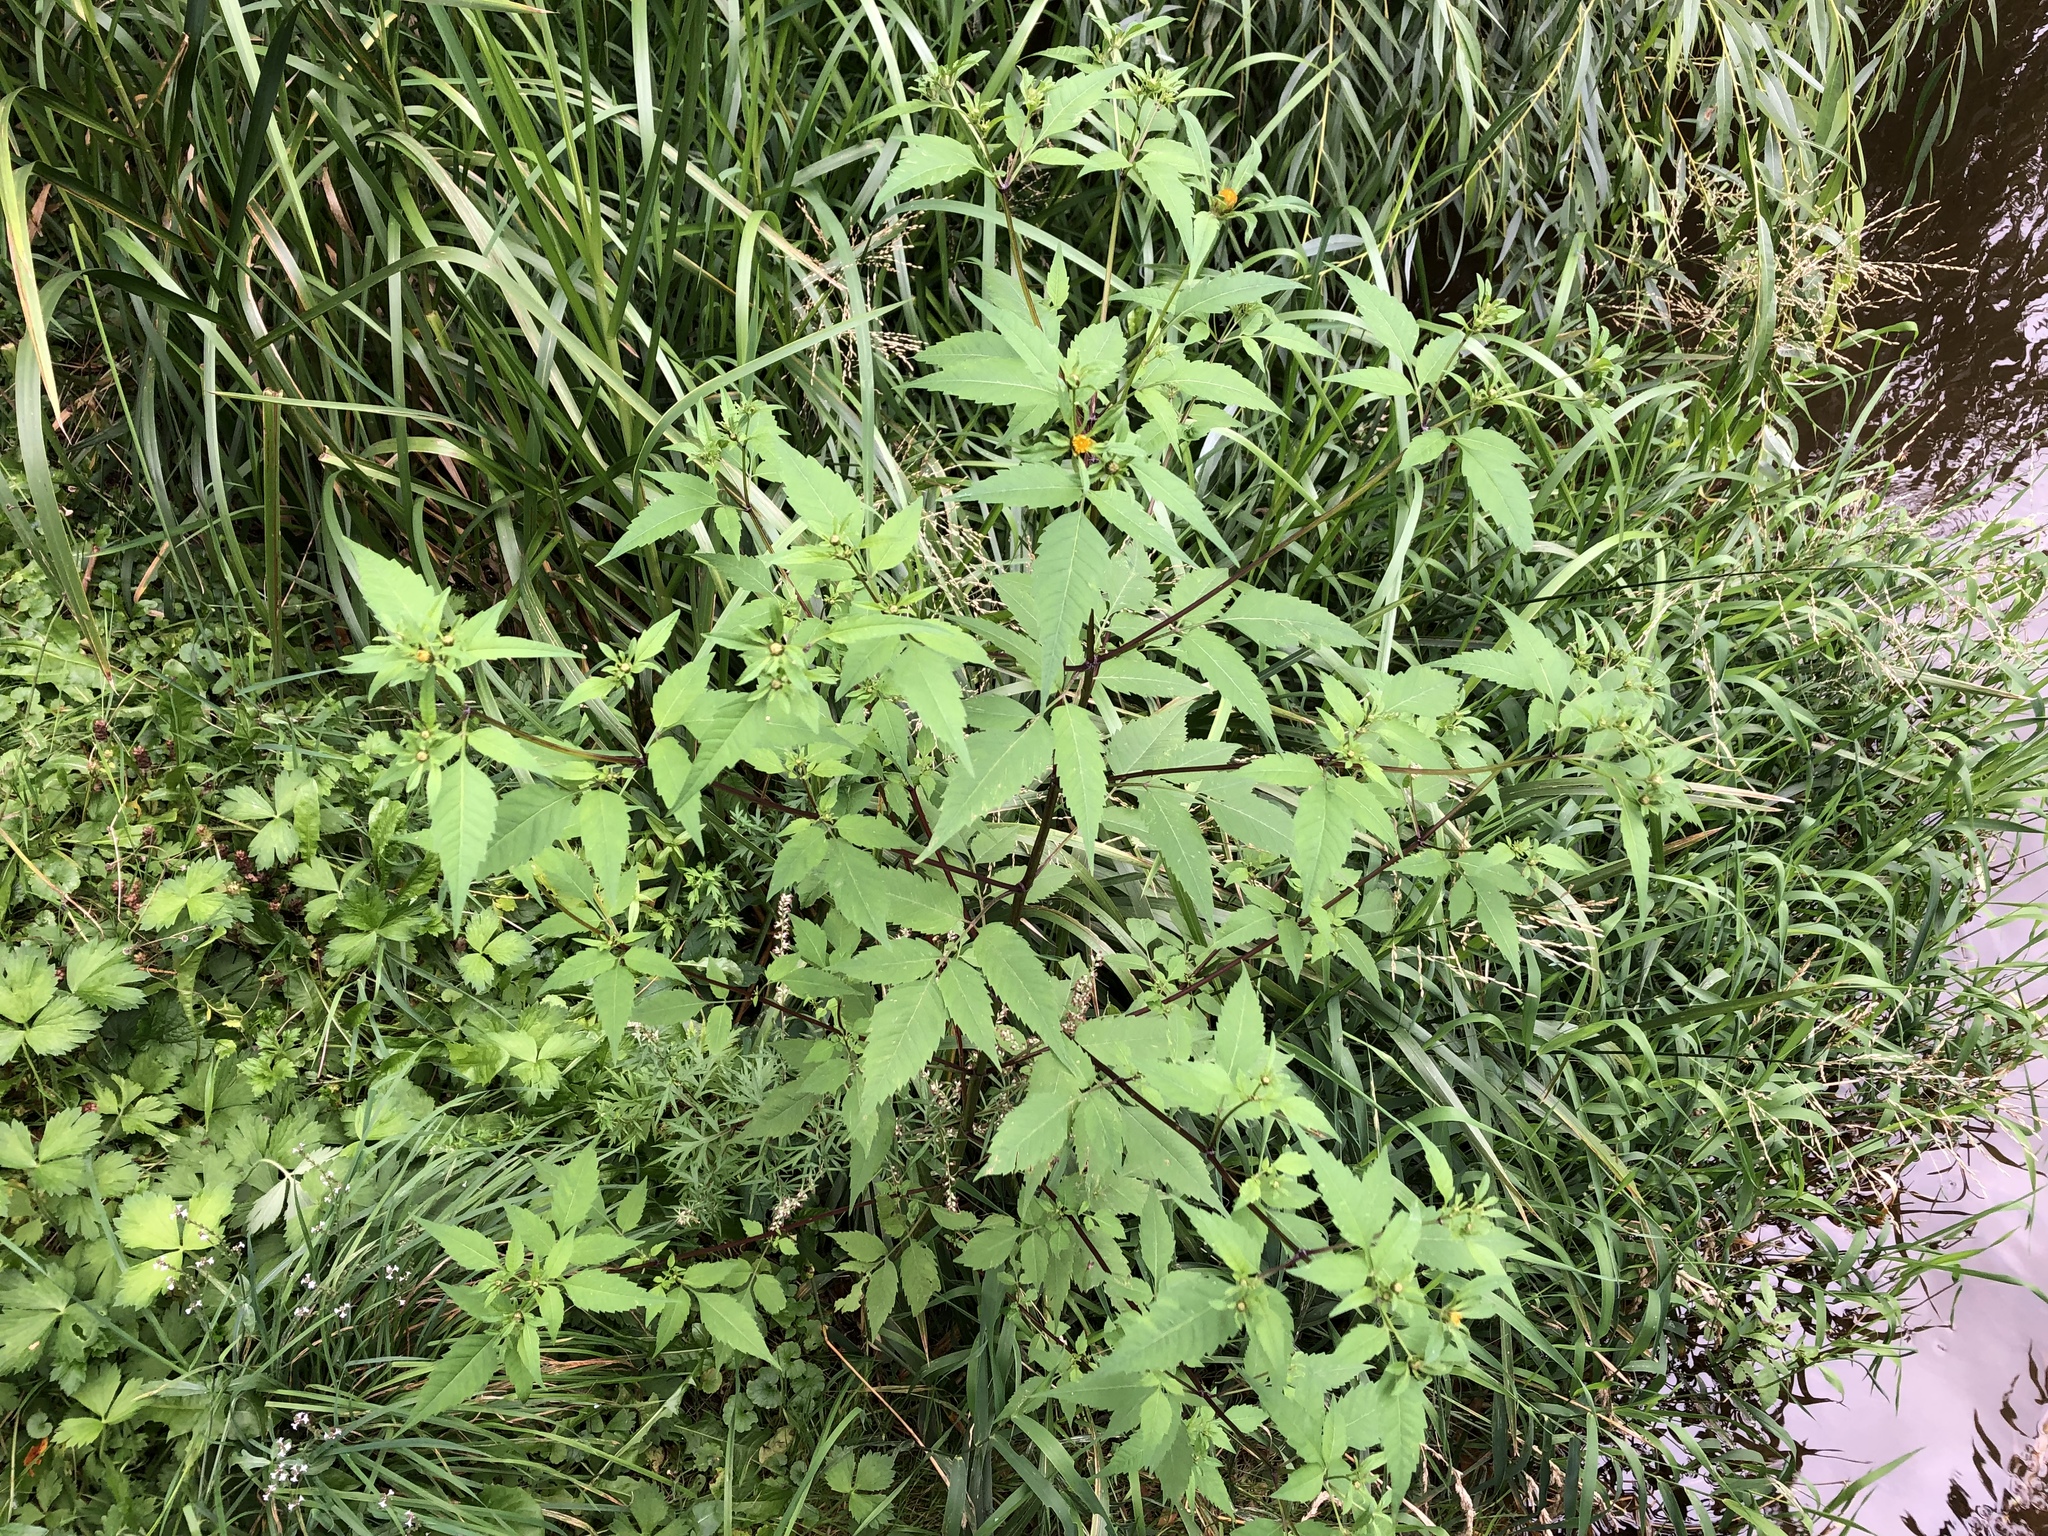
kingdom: Plantae
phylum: Tracheophyta
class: Magnoliopsida
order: Asterales
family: Asteraceae
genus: Bidens
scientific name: Bidens frondosa
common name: Beggarticks
